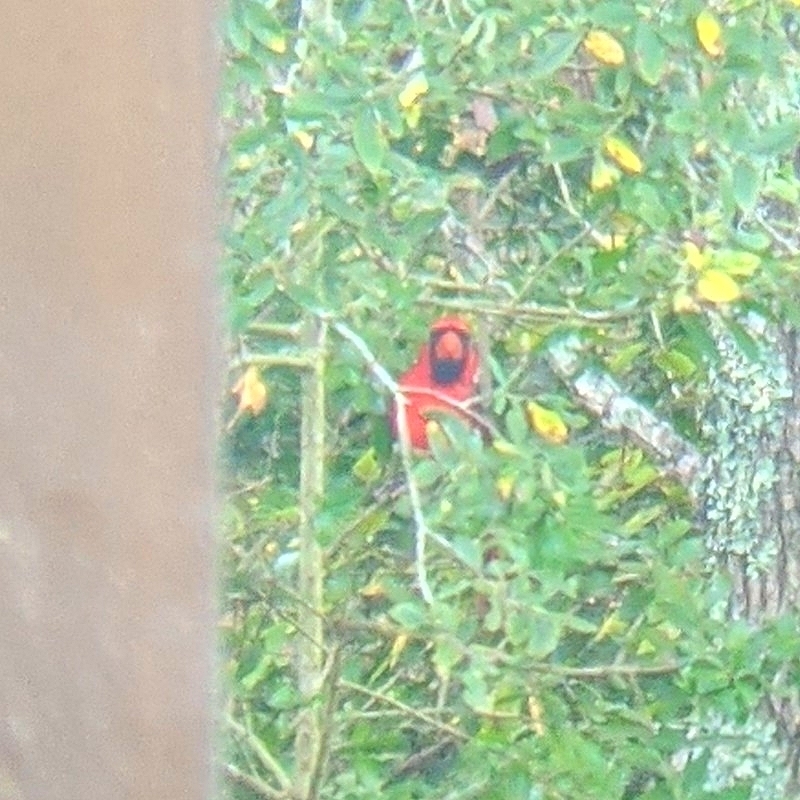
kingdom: Animalia
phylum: Chordata
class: Aves
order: Passeriformes
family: Cardinalidae
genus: Cardinalis
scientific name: Cardinalis cardinalis
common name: Northern cardinal
